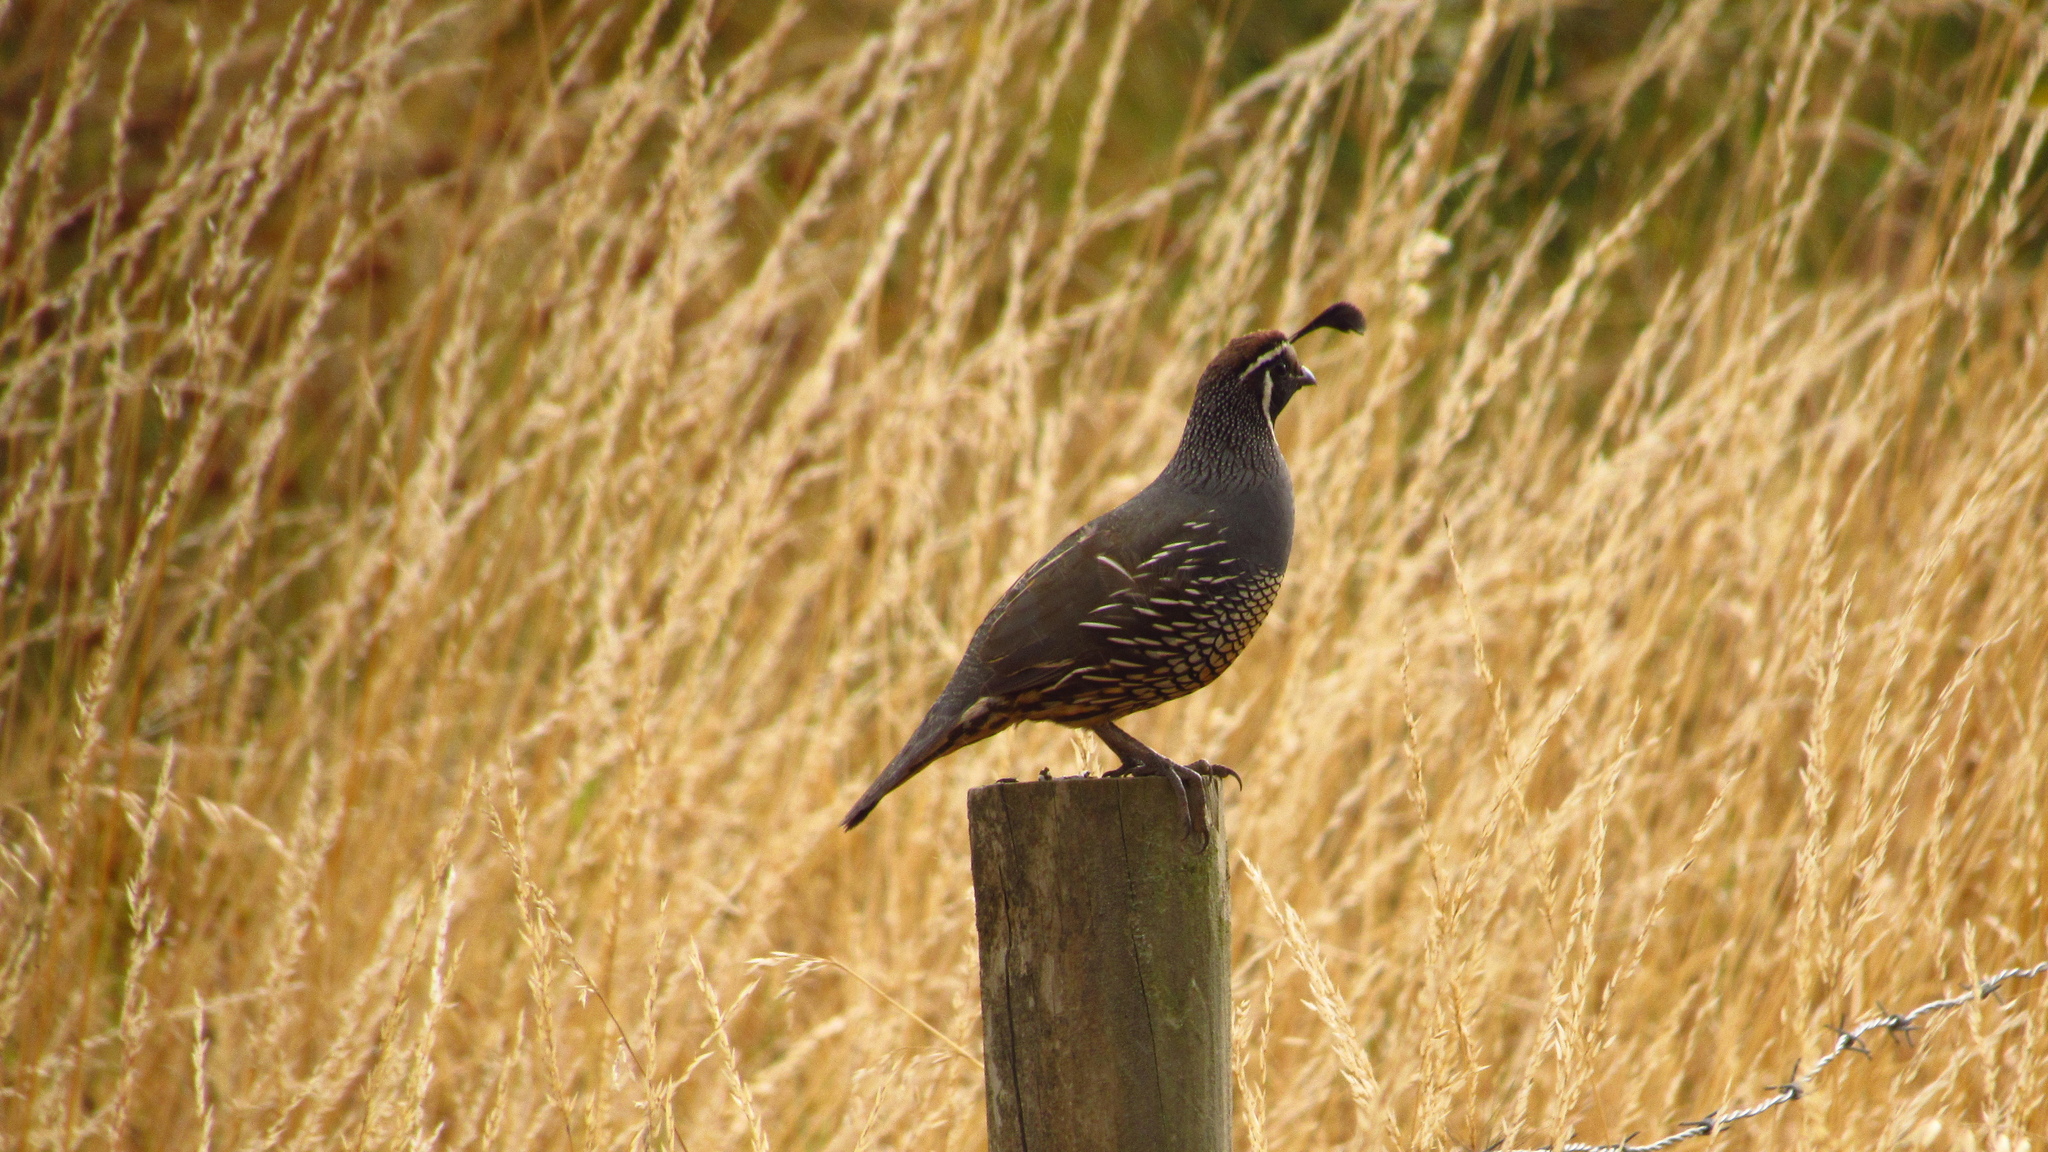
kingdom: Animalia
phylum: Chordata
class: Aves
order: Galliformes
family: Odontophoridae
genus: Callipepla
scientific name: Callipepla californica
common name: California quail
